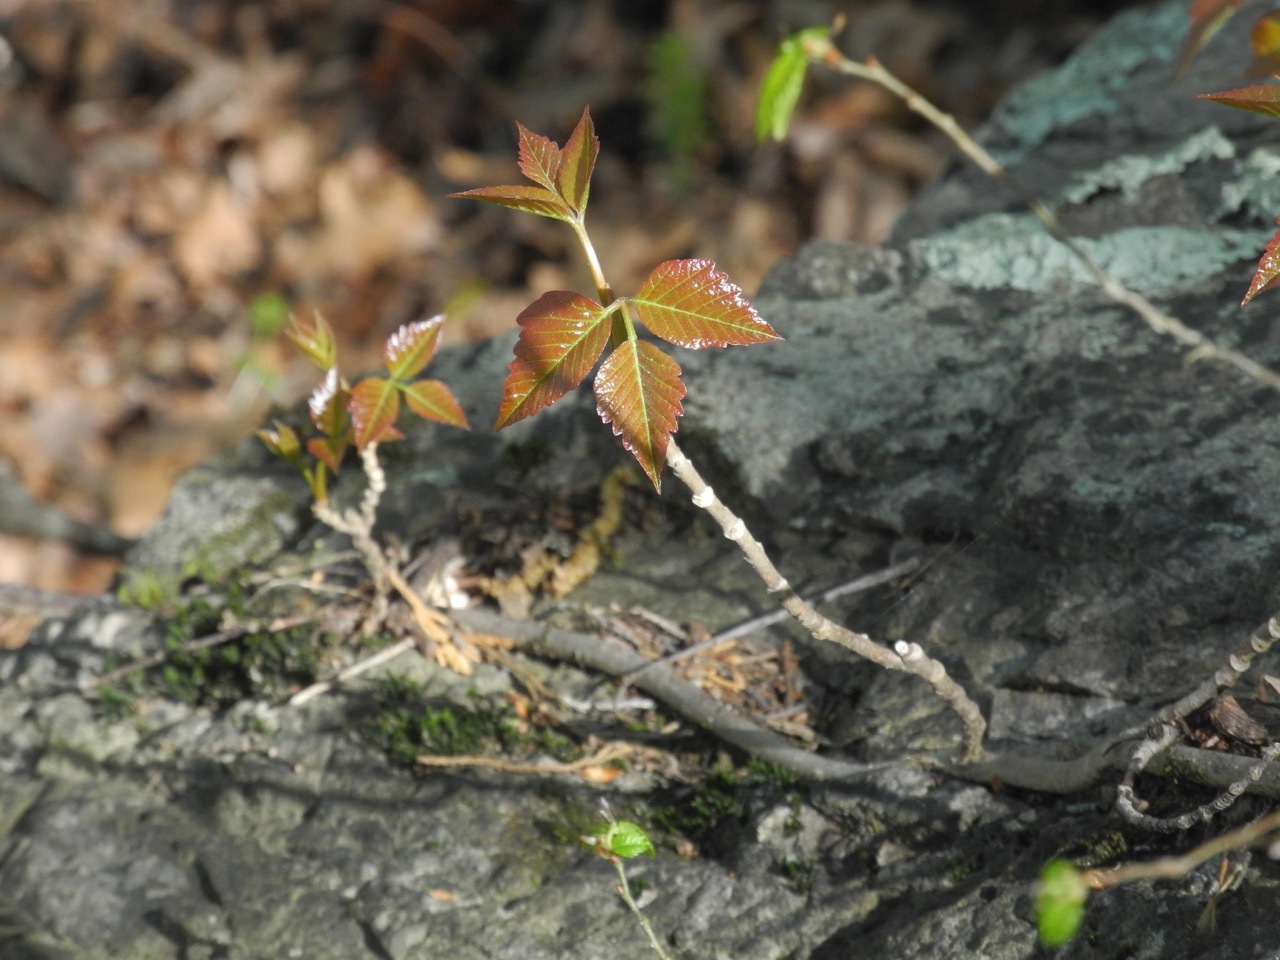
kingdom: Plantae
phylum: Tracheophyta
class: Magnoliopsida
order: Sapindales
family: Anacardiaceae
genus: Toxicodendron
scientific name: Toxicodendron radicans
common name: Poison ivy
